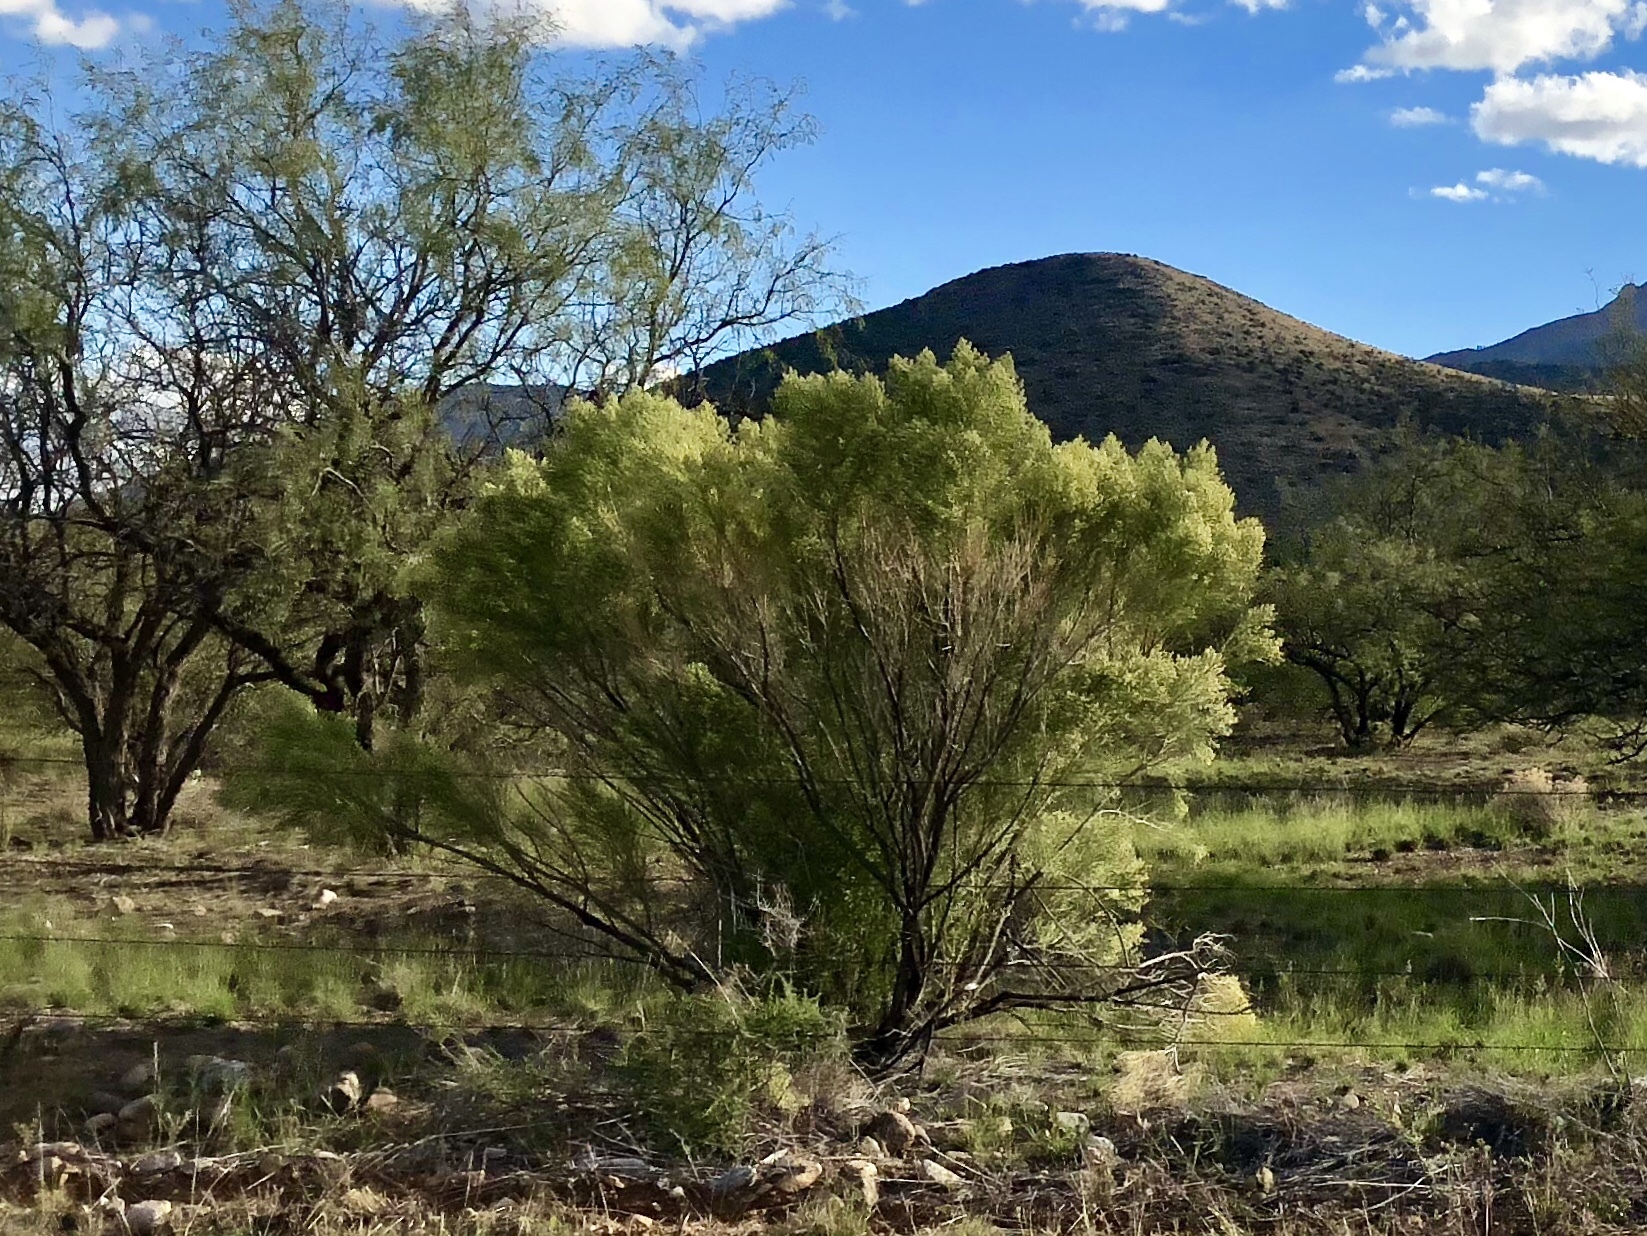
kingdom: Plantae
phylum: Tracheophyta
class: Magnoliopsida
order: Asterales
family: Asteraceae
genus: Baccharis
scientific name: Baccharis sarothroides
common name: Desert-broom
